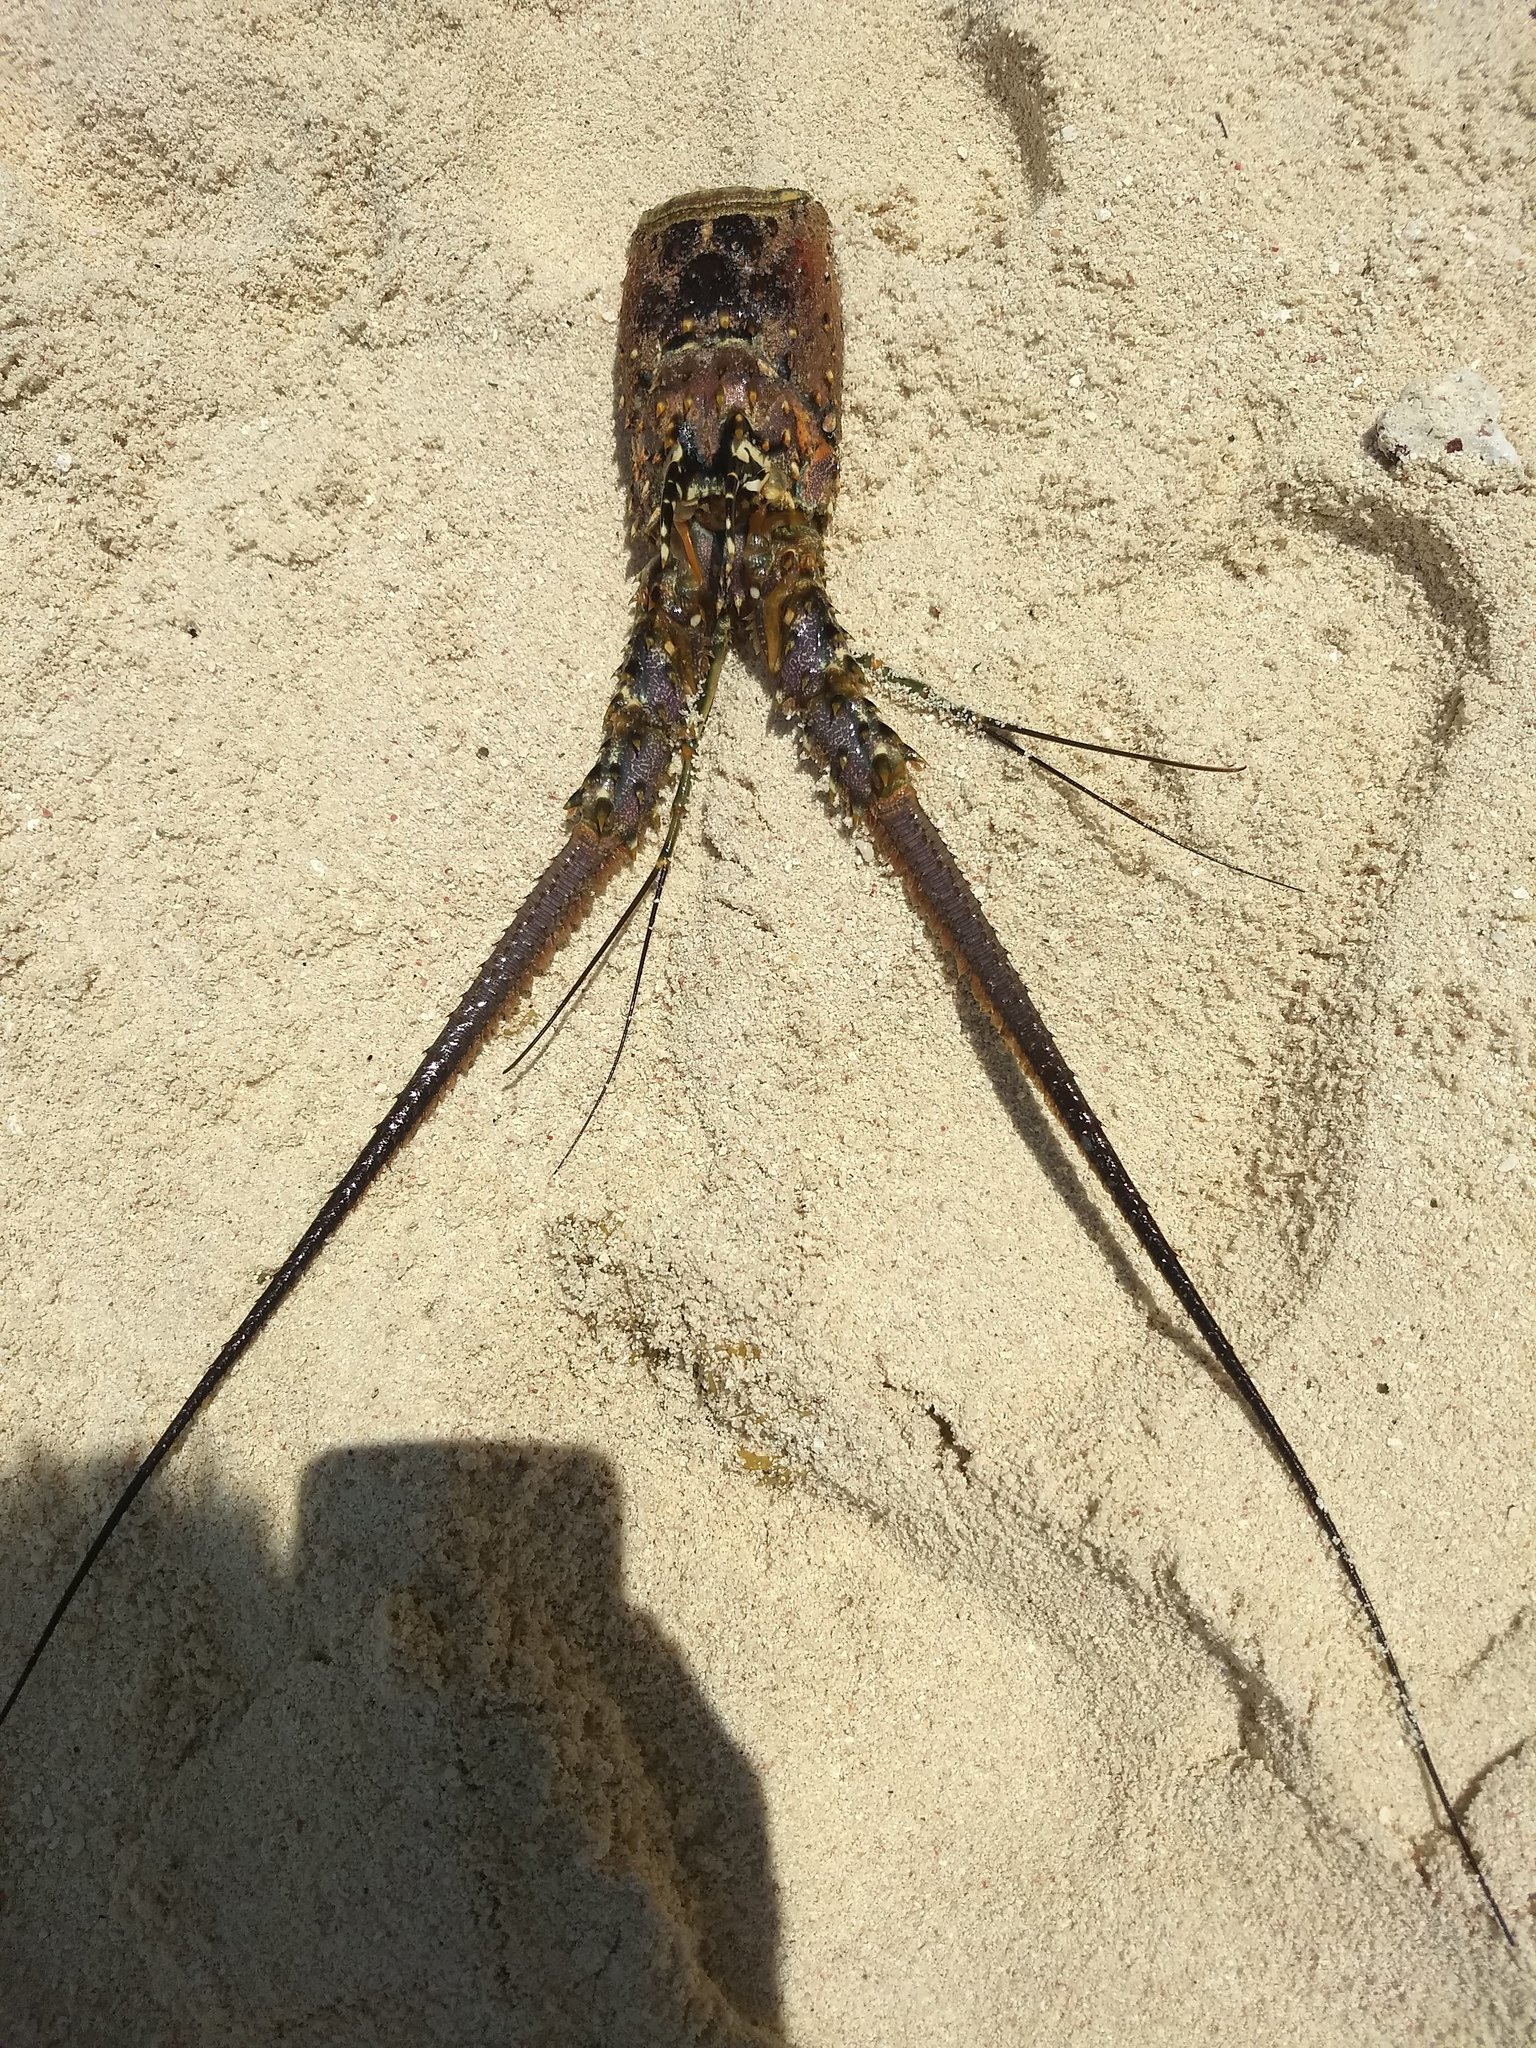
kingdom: Animalia
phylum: Arthropoda
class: Malacostraca
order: Decapoda
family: Palinuridae
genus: Panulirus
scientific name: Panulirus argus
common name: Caribbean spiny lobster
